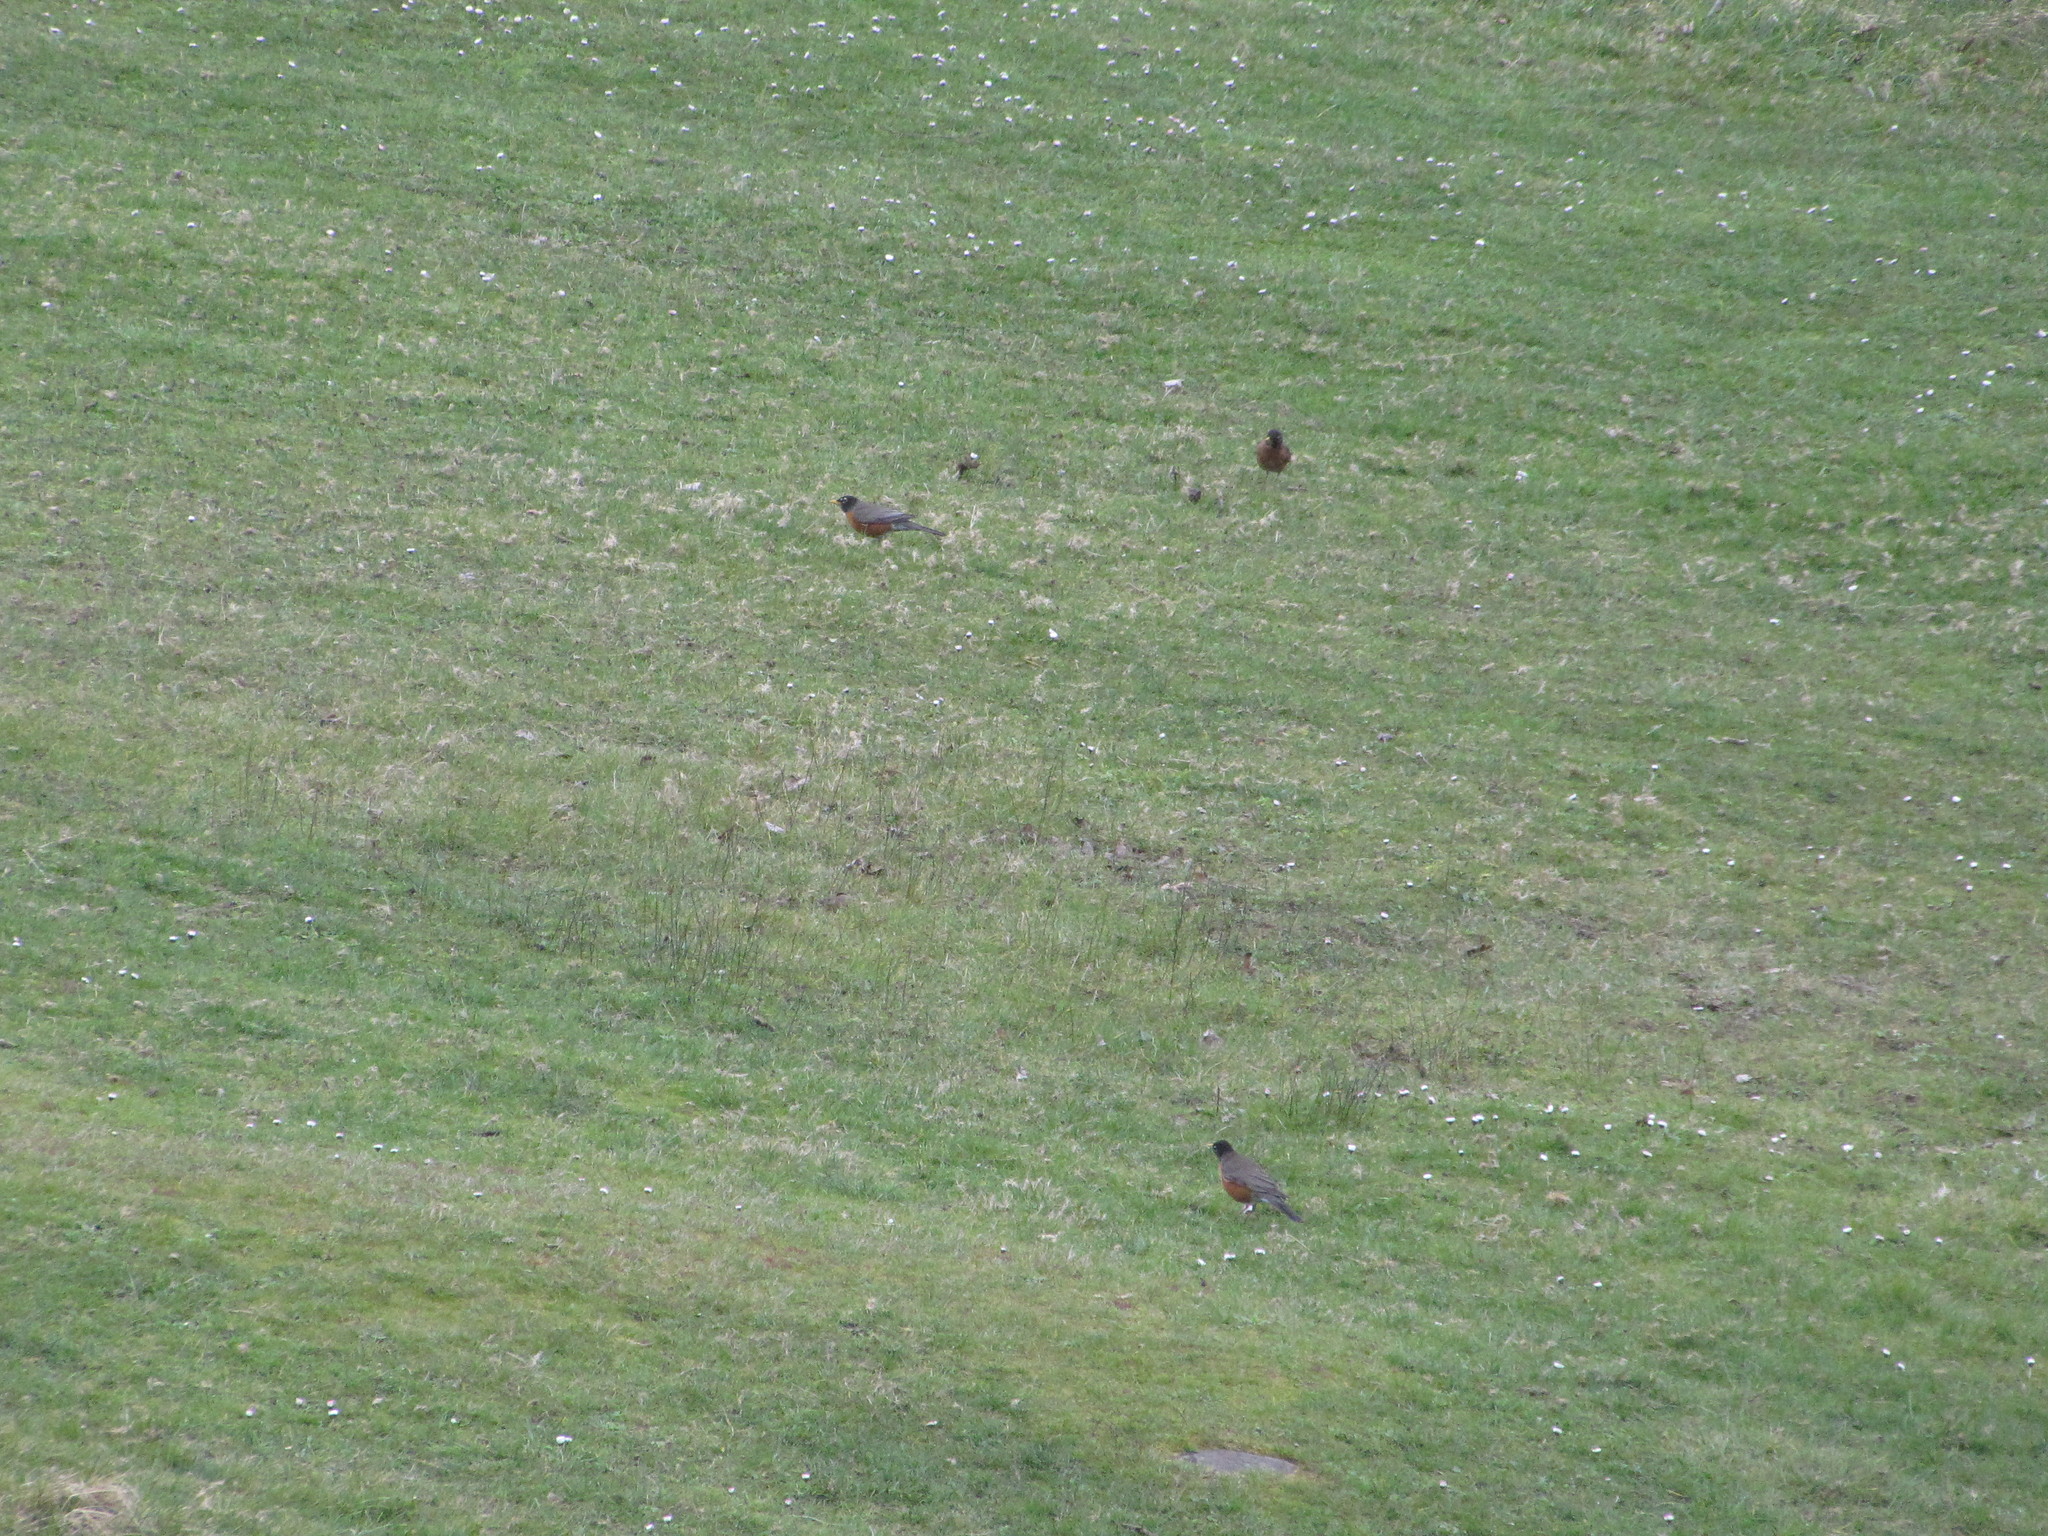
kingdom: Animalia
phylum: Chordata
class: Aves
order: Passeriformes
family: Turdidae
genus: Turdus
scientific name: Turdus migratorius
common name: American robin
